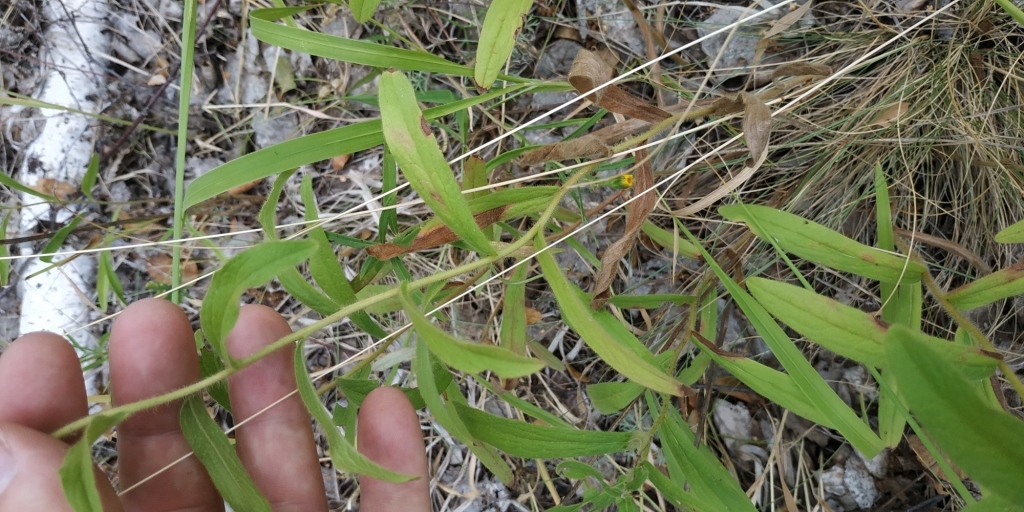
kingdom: Plantae
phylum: Tracheophyta
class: Magnoliopsida
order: Asterales
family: Asteraceae
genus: Pentanema
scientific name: Pentanema hirtum
